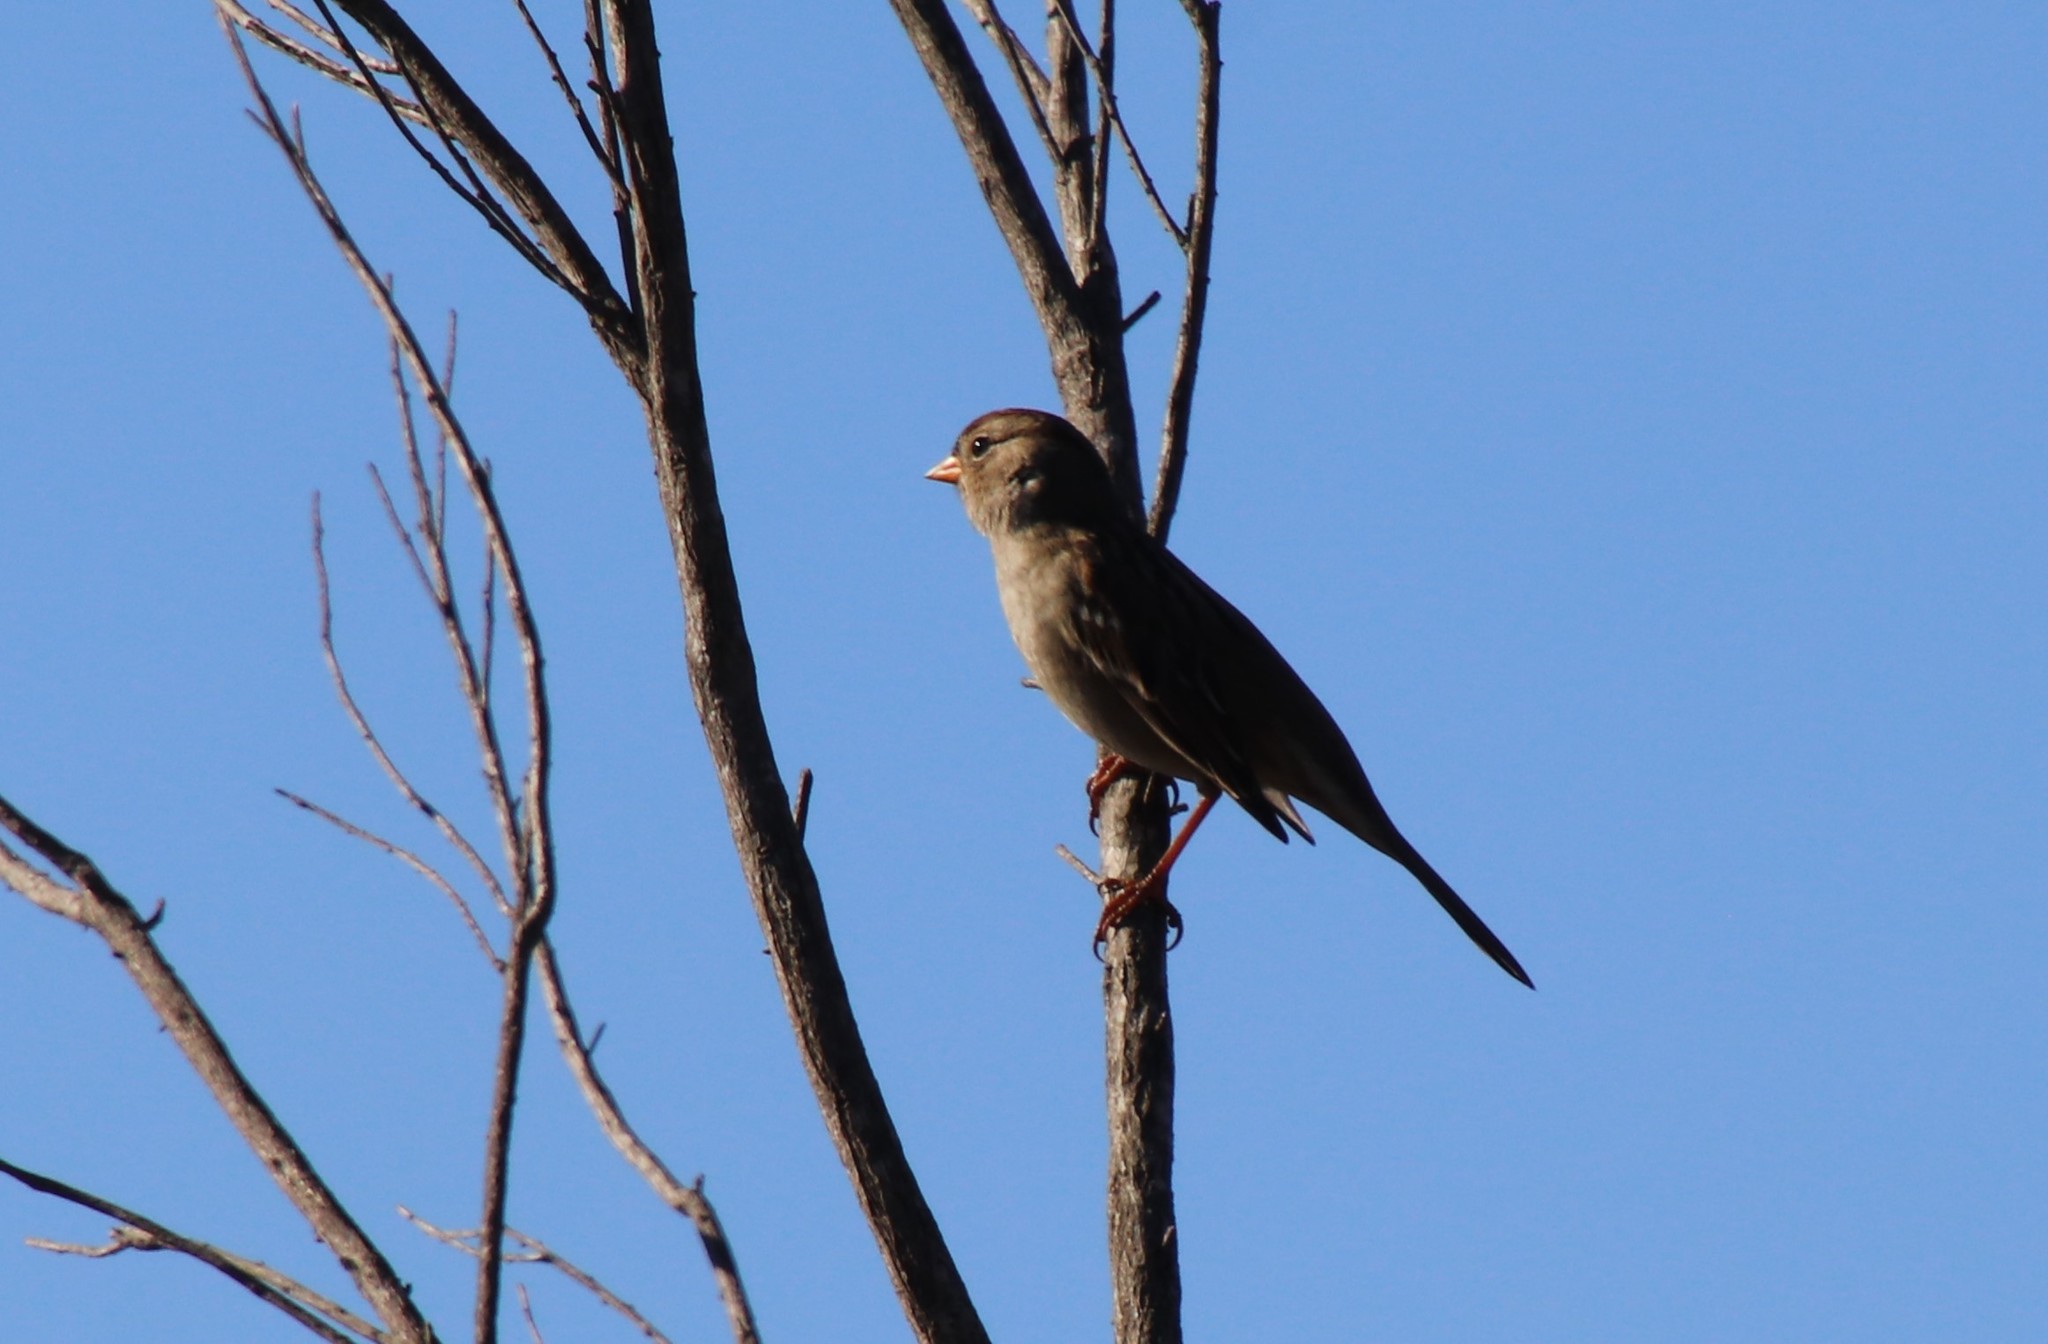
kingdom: Animalia
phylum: Chordata
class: Aves
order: Passeriformes
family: Passerellidae
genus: Zonotrichia
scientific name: Zonotrichia leucophrys
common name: White-crowned sparrow
